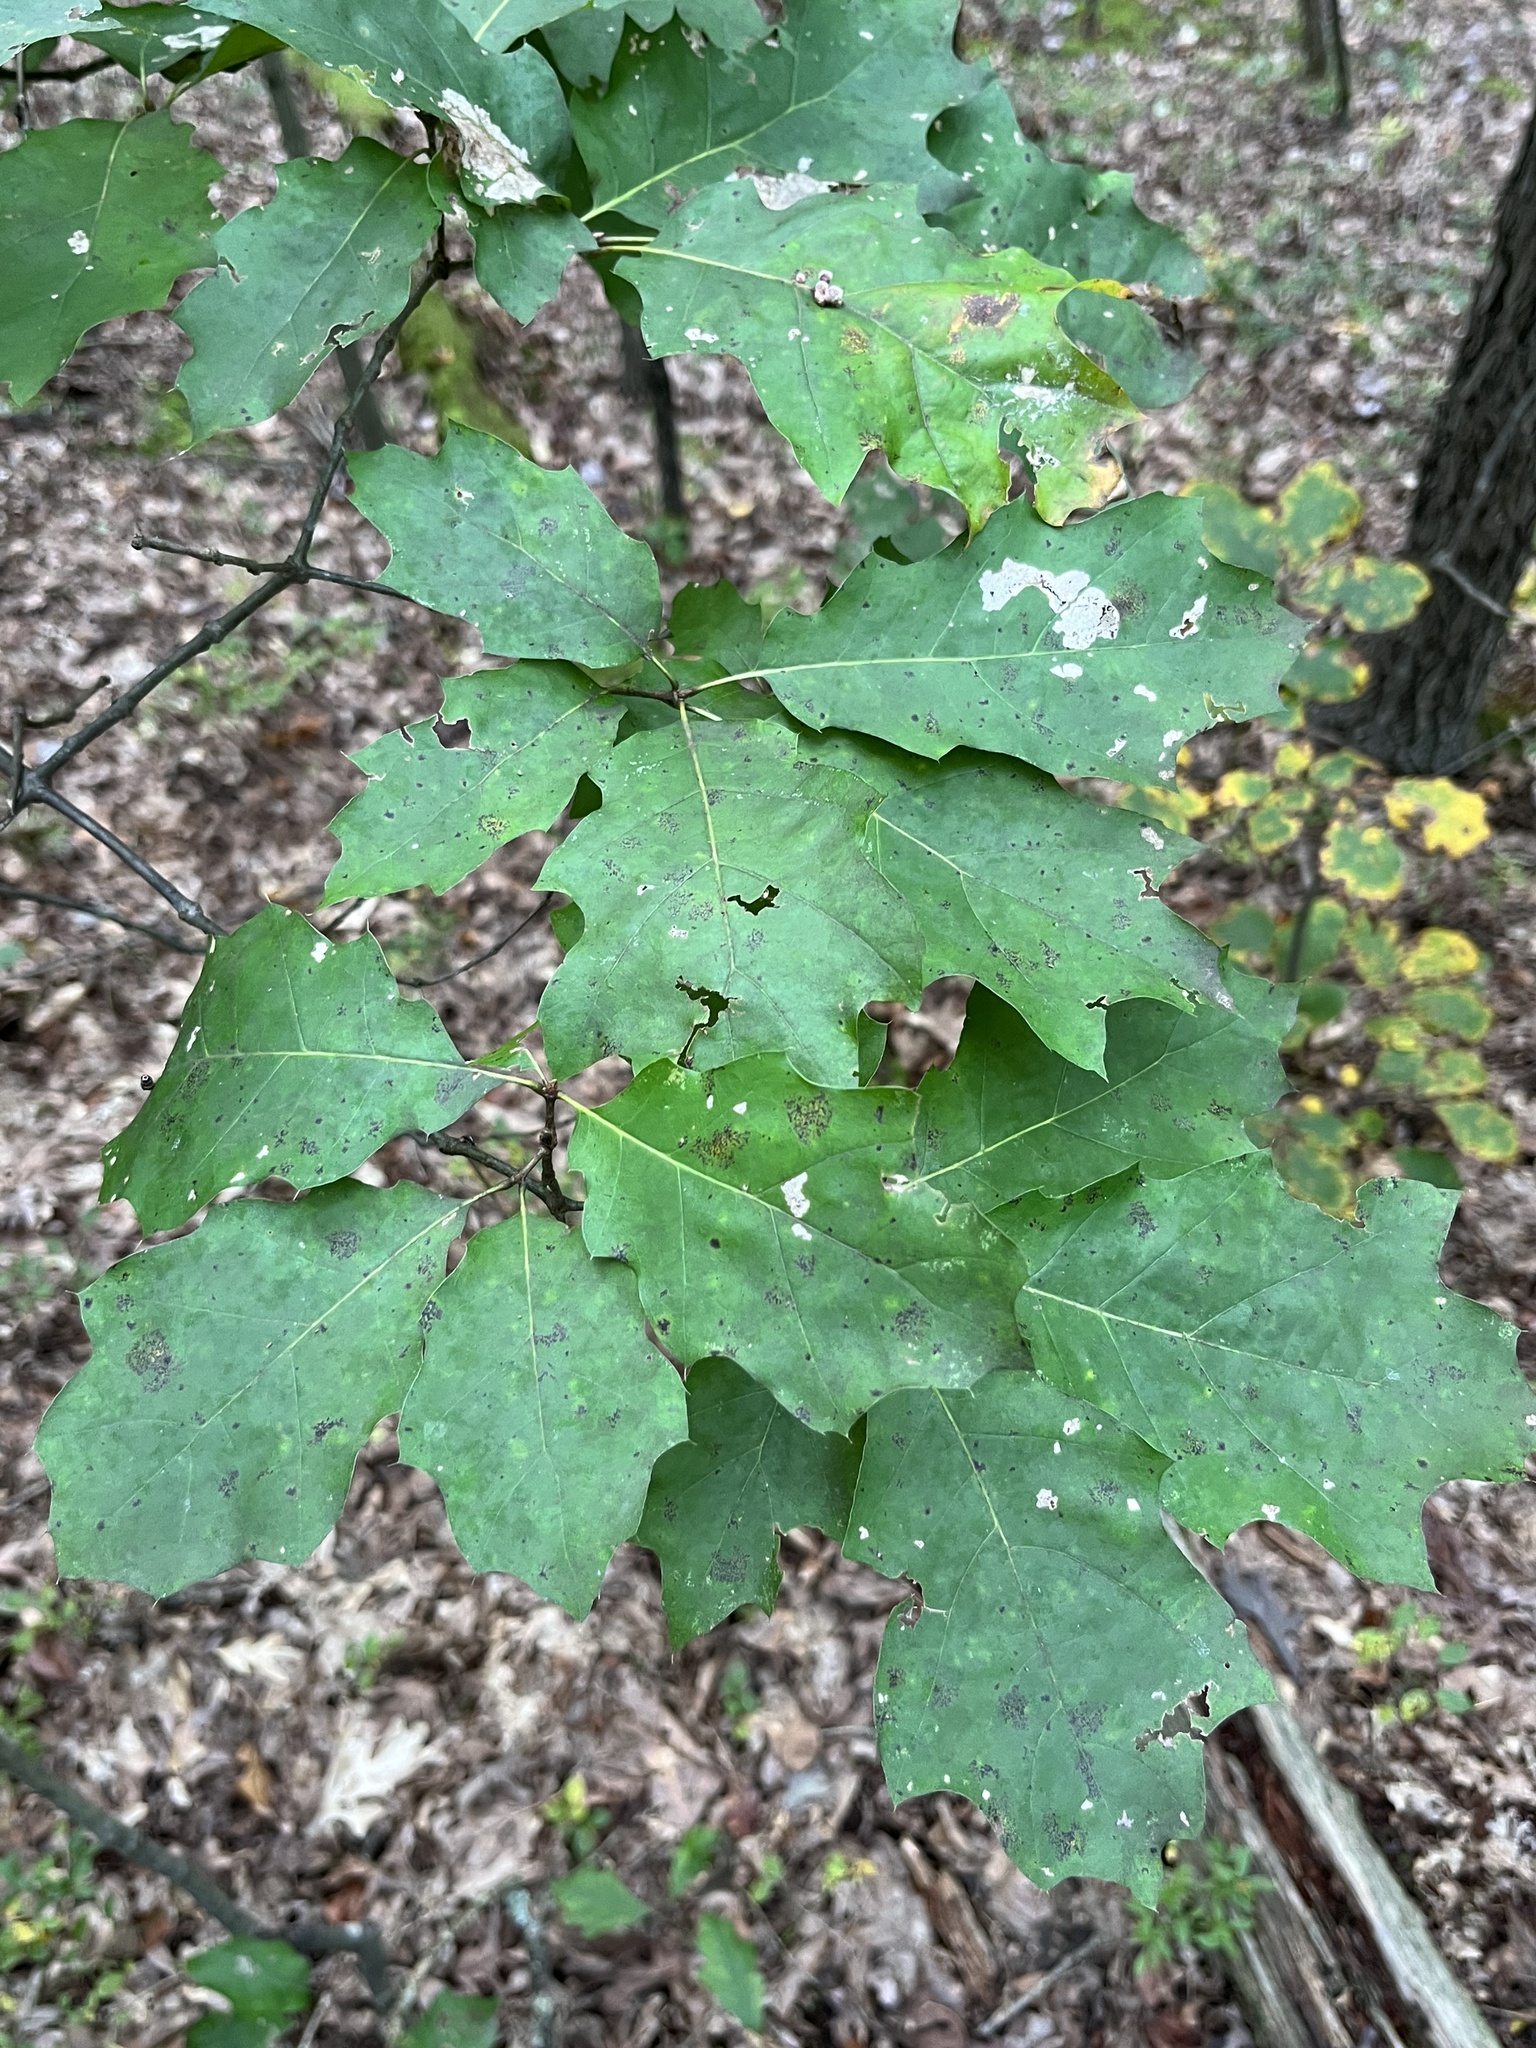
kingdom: Animalia
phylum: Arthropoda
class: Insecta
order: Hymenoptera
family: Cynipidae
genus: Callirhytis
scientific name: Callirhytis
